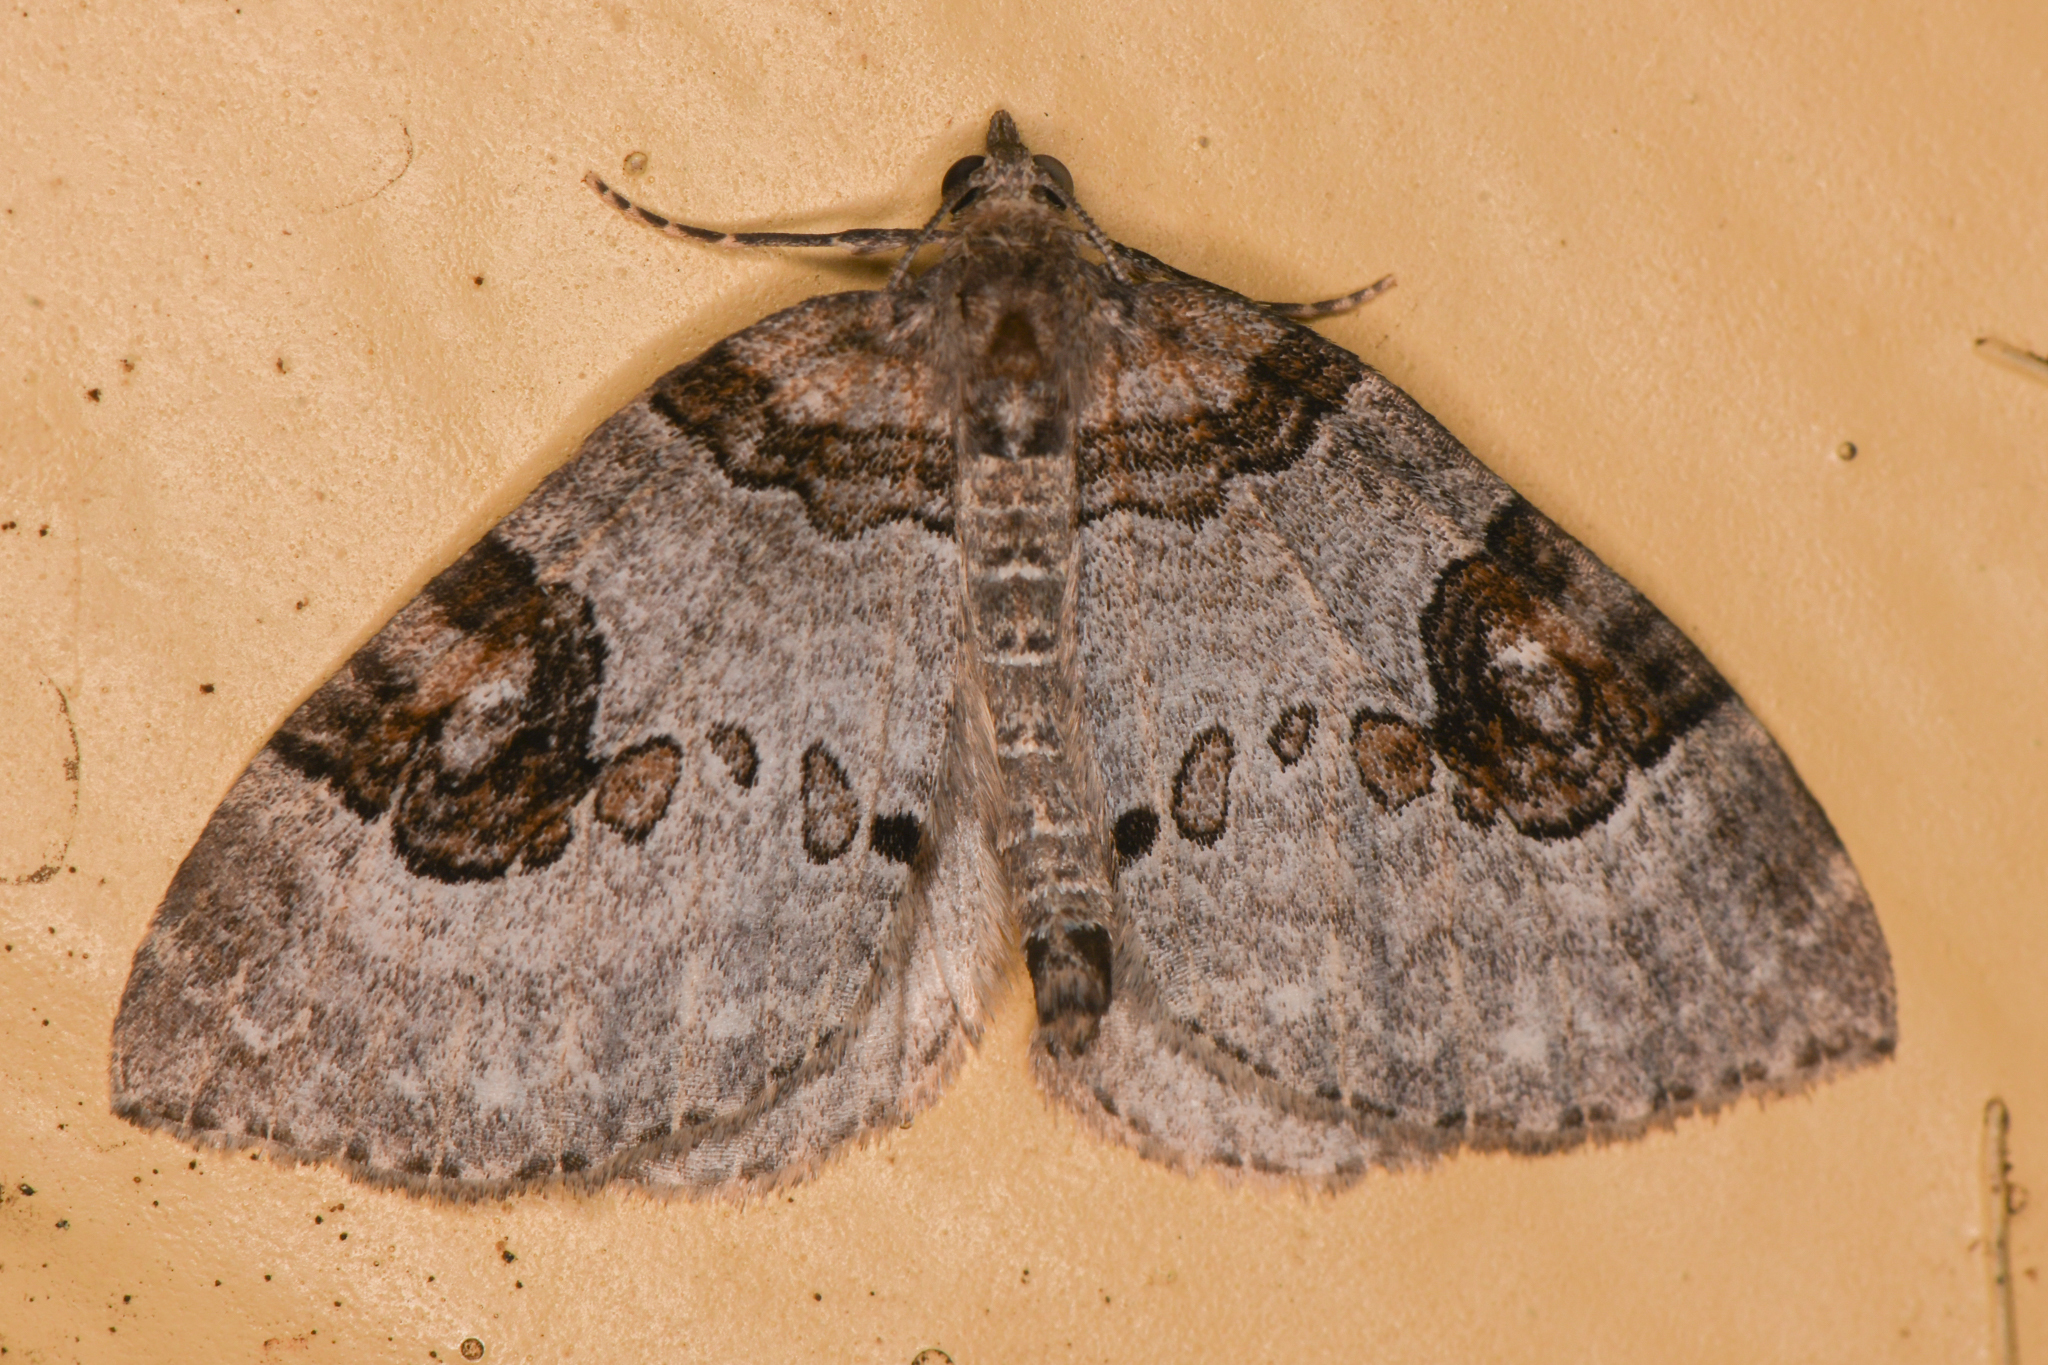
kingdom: Animalia
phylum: Arthropoda
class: Insecta
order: Lepidoptera
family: Geometridae
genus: Plemyria
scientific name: Plemyria georgii
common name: George's carpet moth
